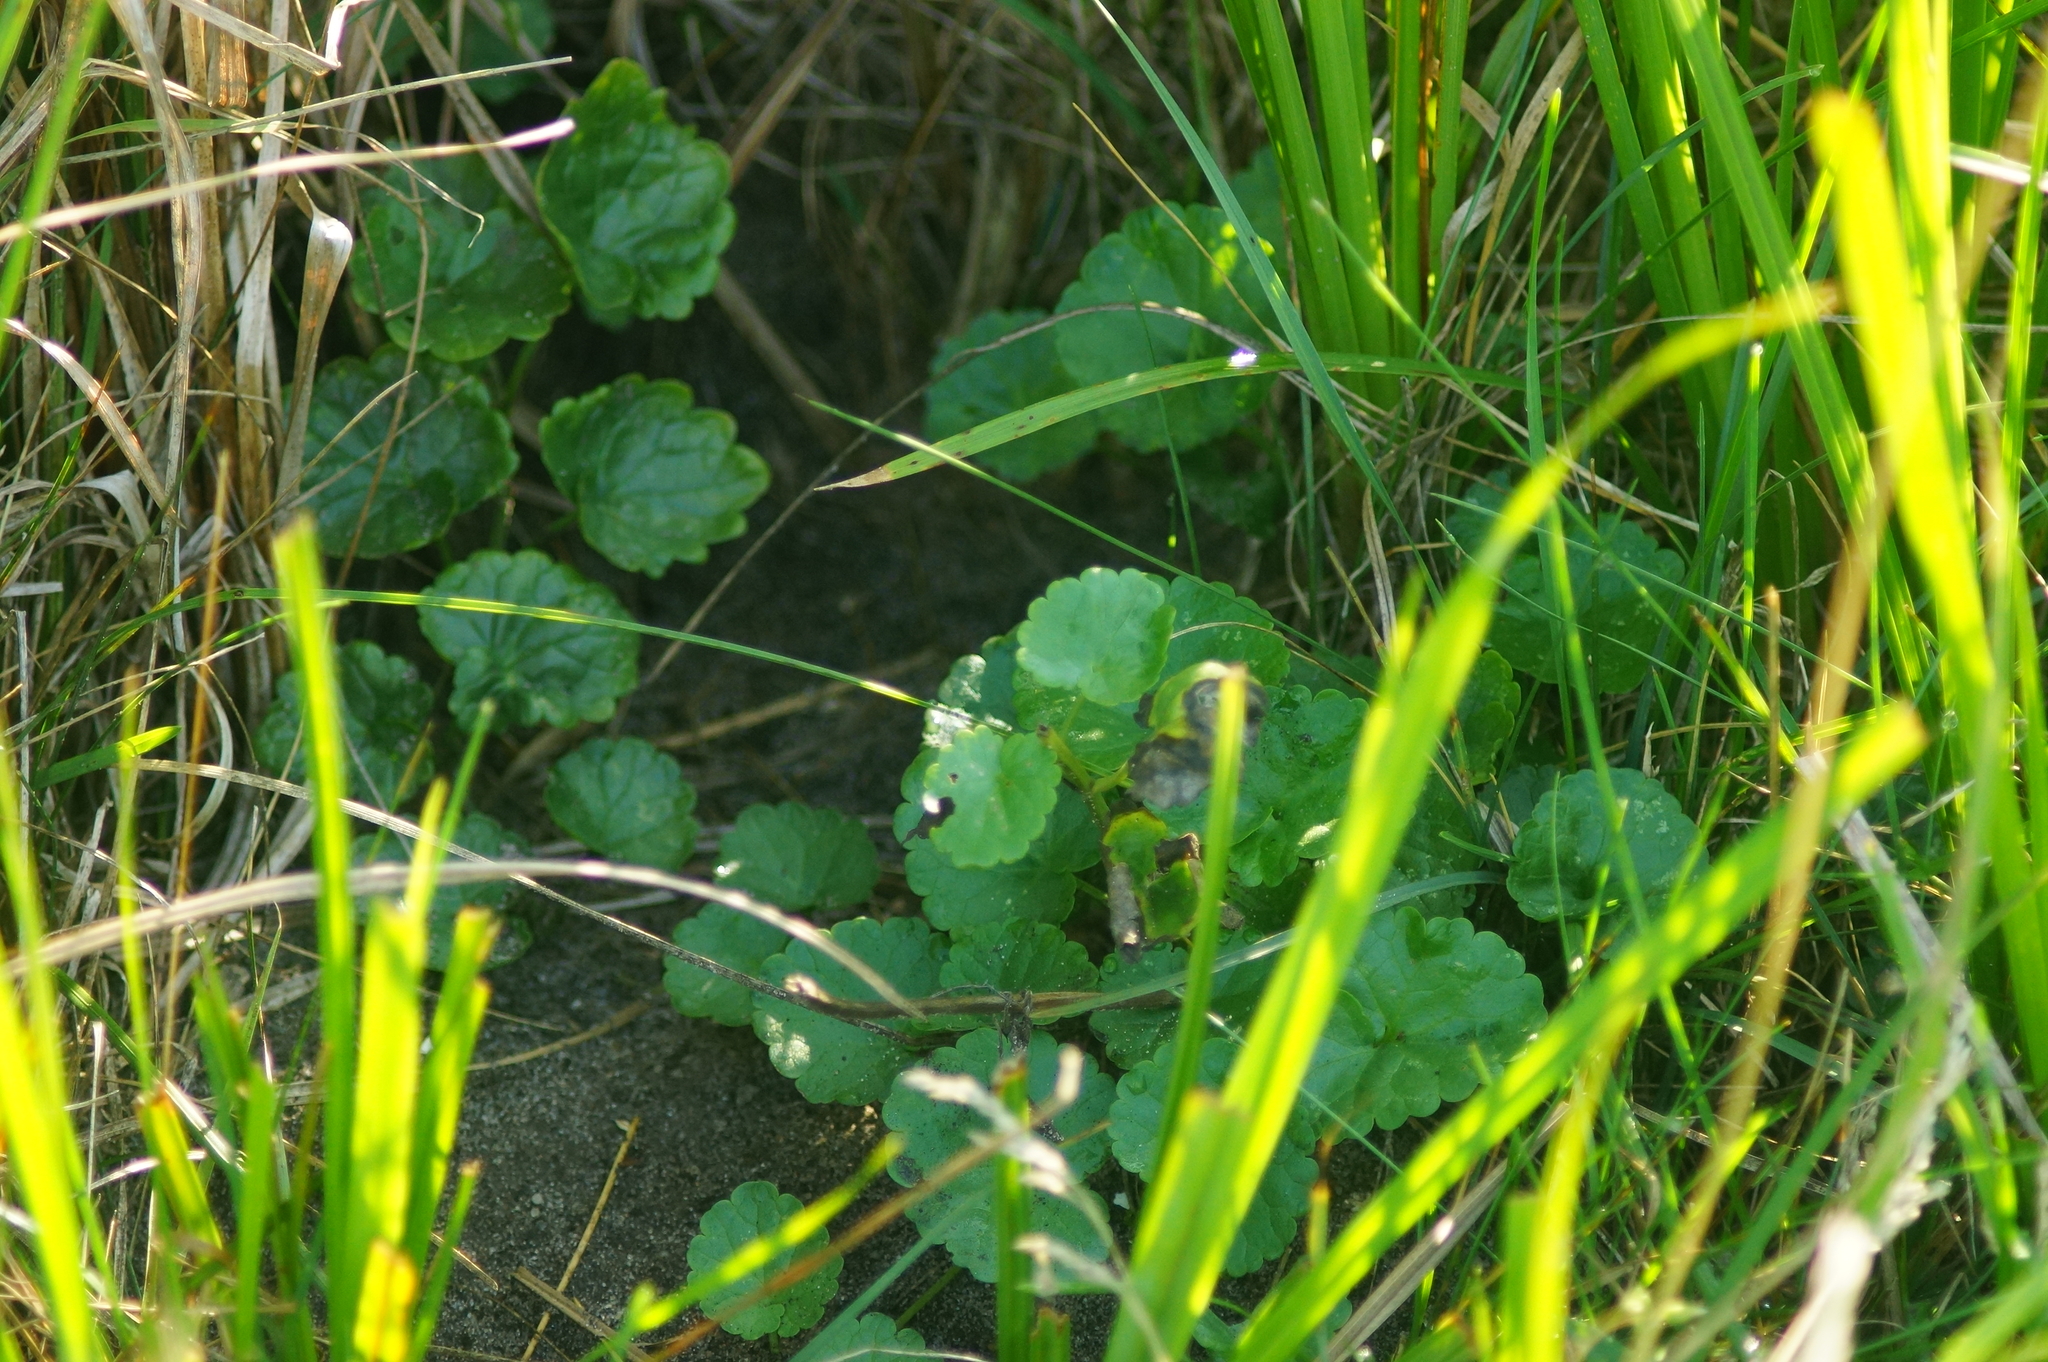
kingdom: Plantae
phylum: Tracheophyta
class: Magnoliopsida
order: Lamiales
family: Lamiaceae
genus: Glechoma
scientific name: Glechoma hederacea
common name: Ground ivy
